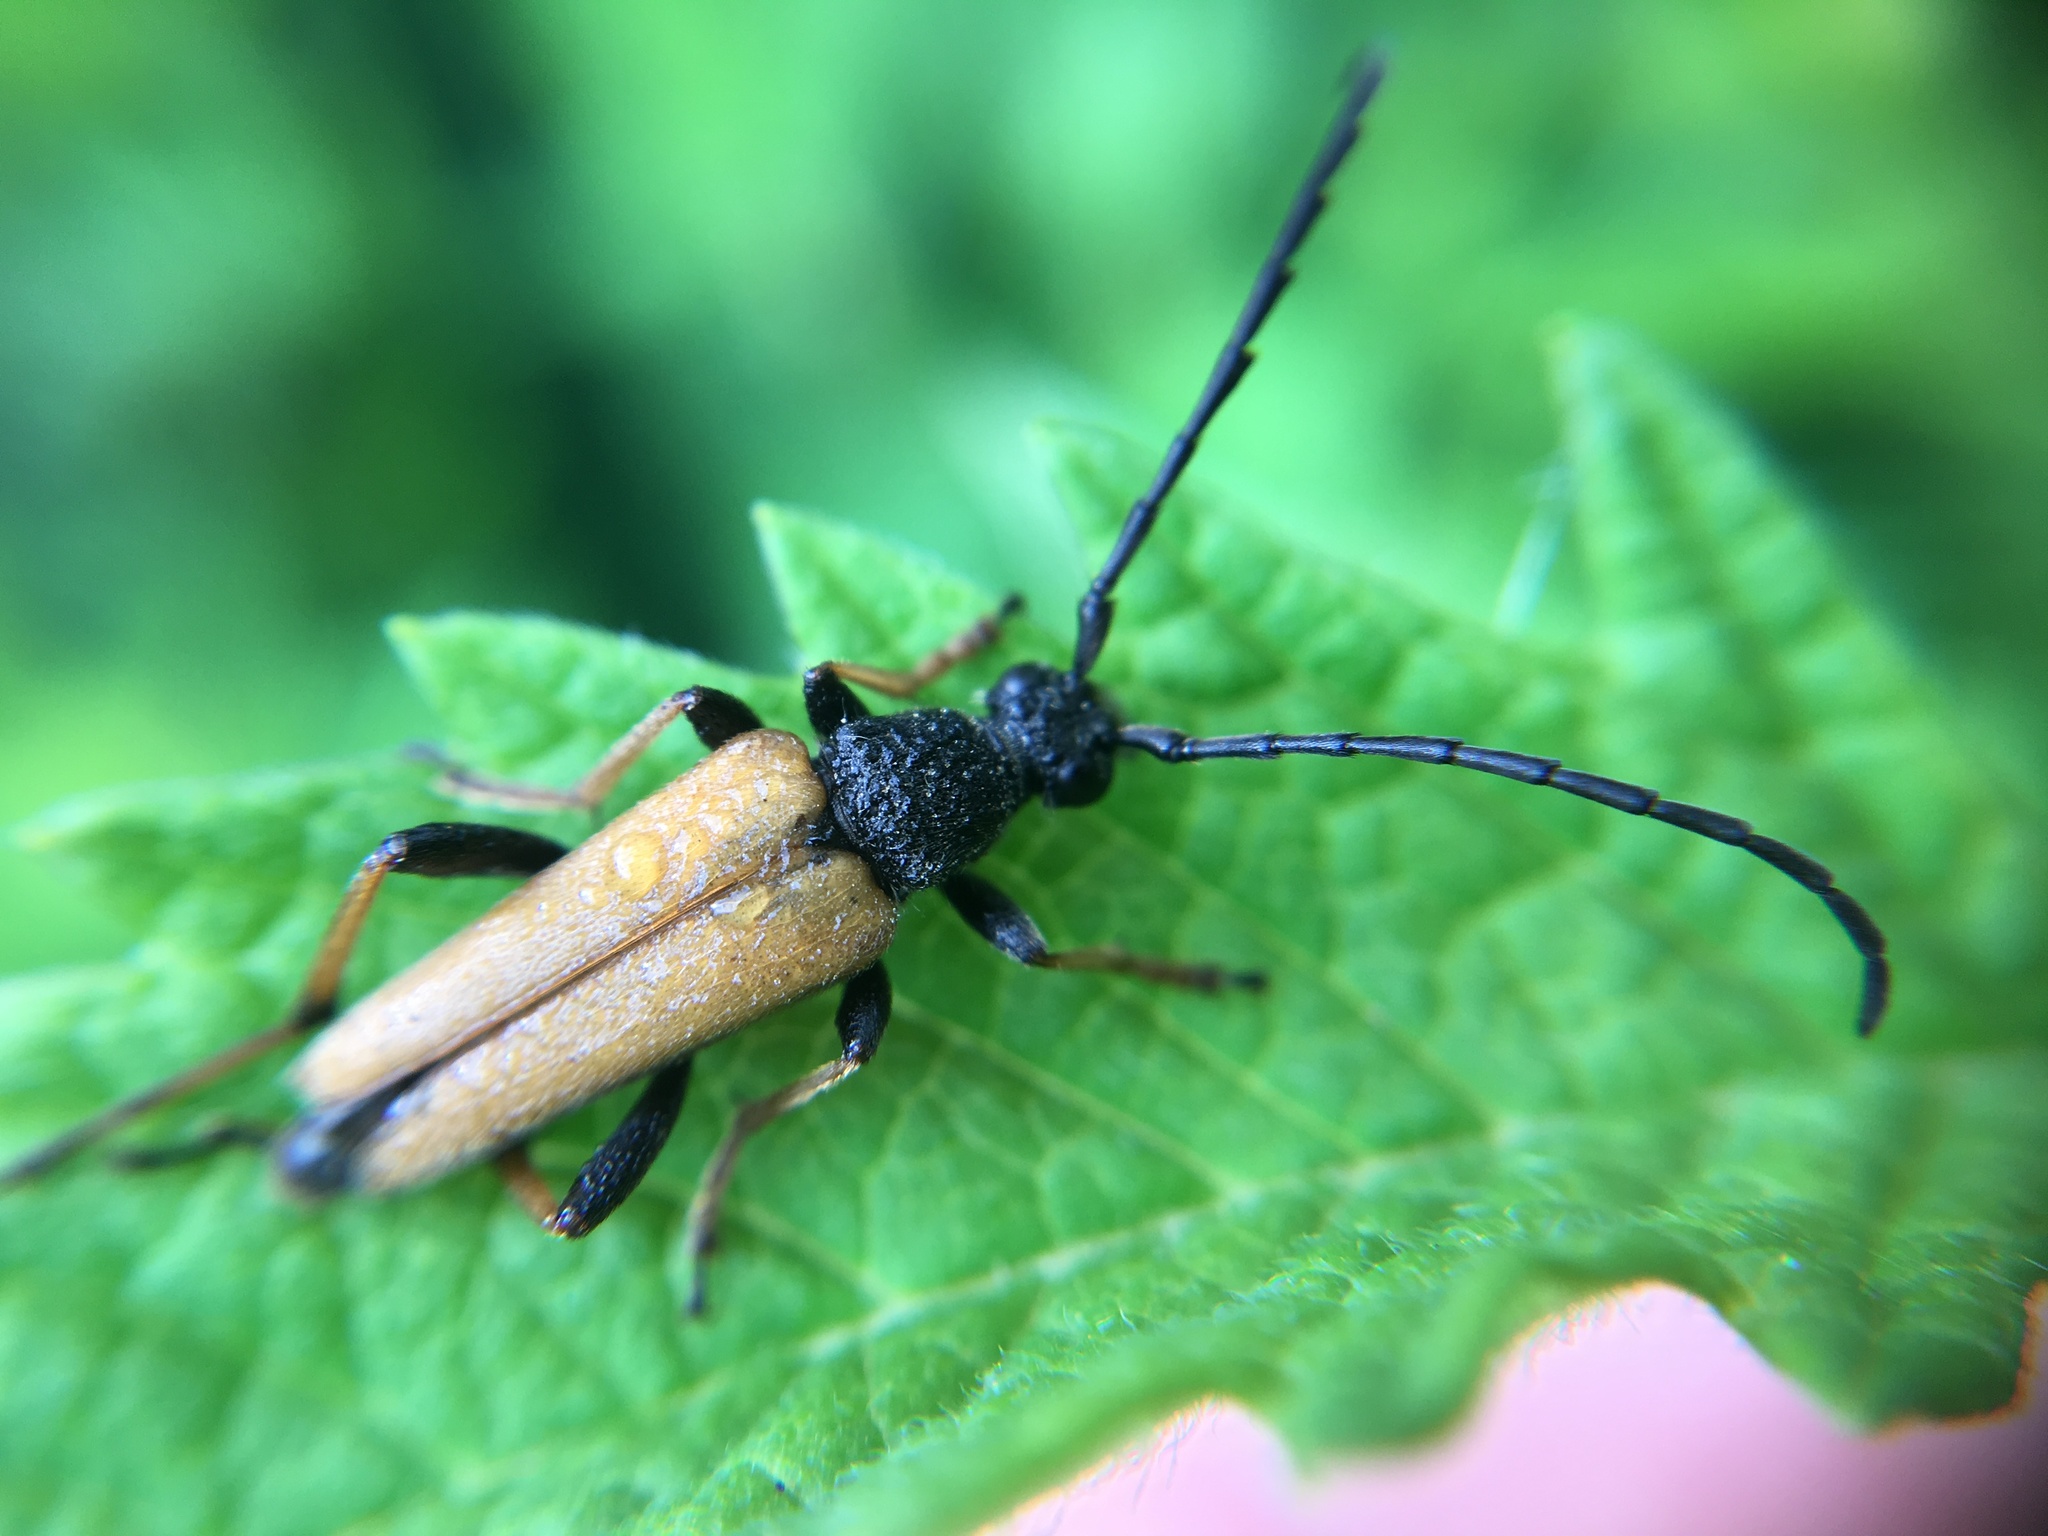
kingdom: Animalia
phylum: Arthropoda
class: Insecta
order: Coleoptera
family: Cerambycidae
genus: Stictoleptura
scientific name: Stictoleptura rubra
